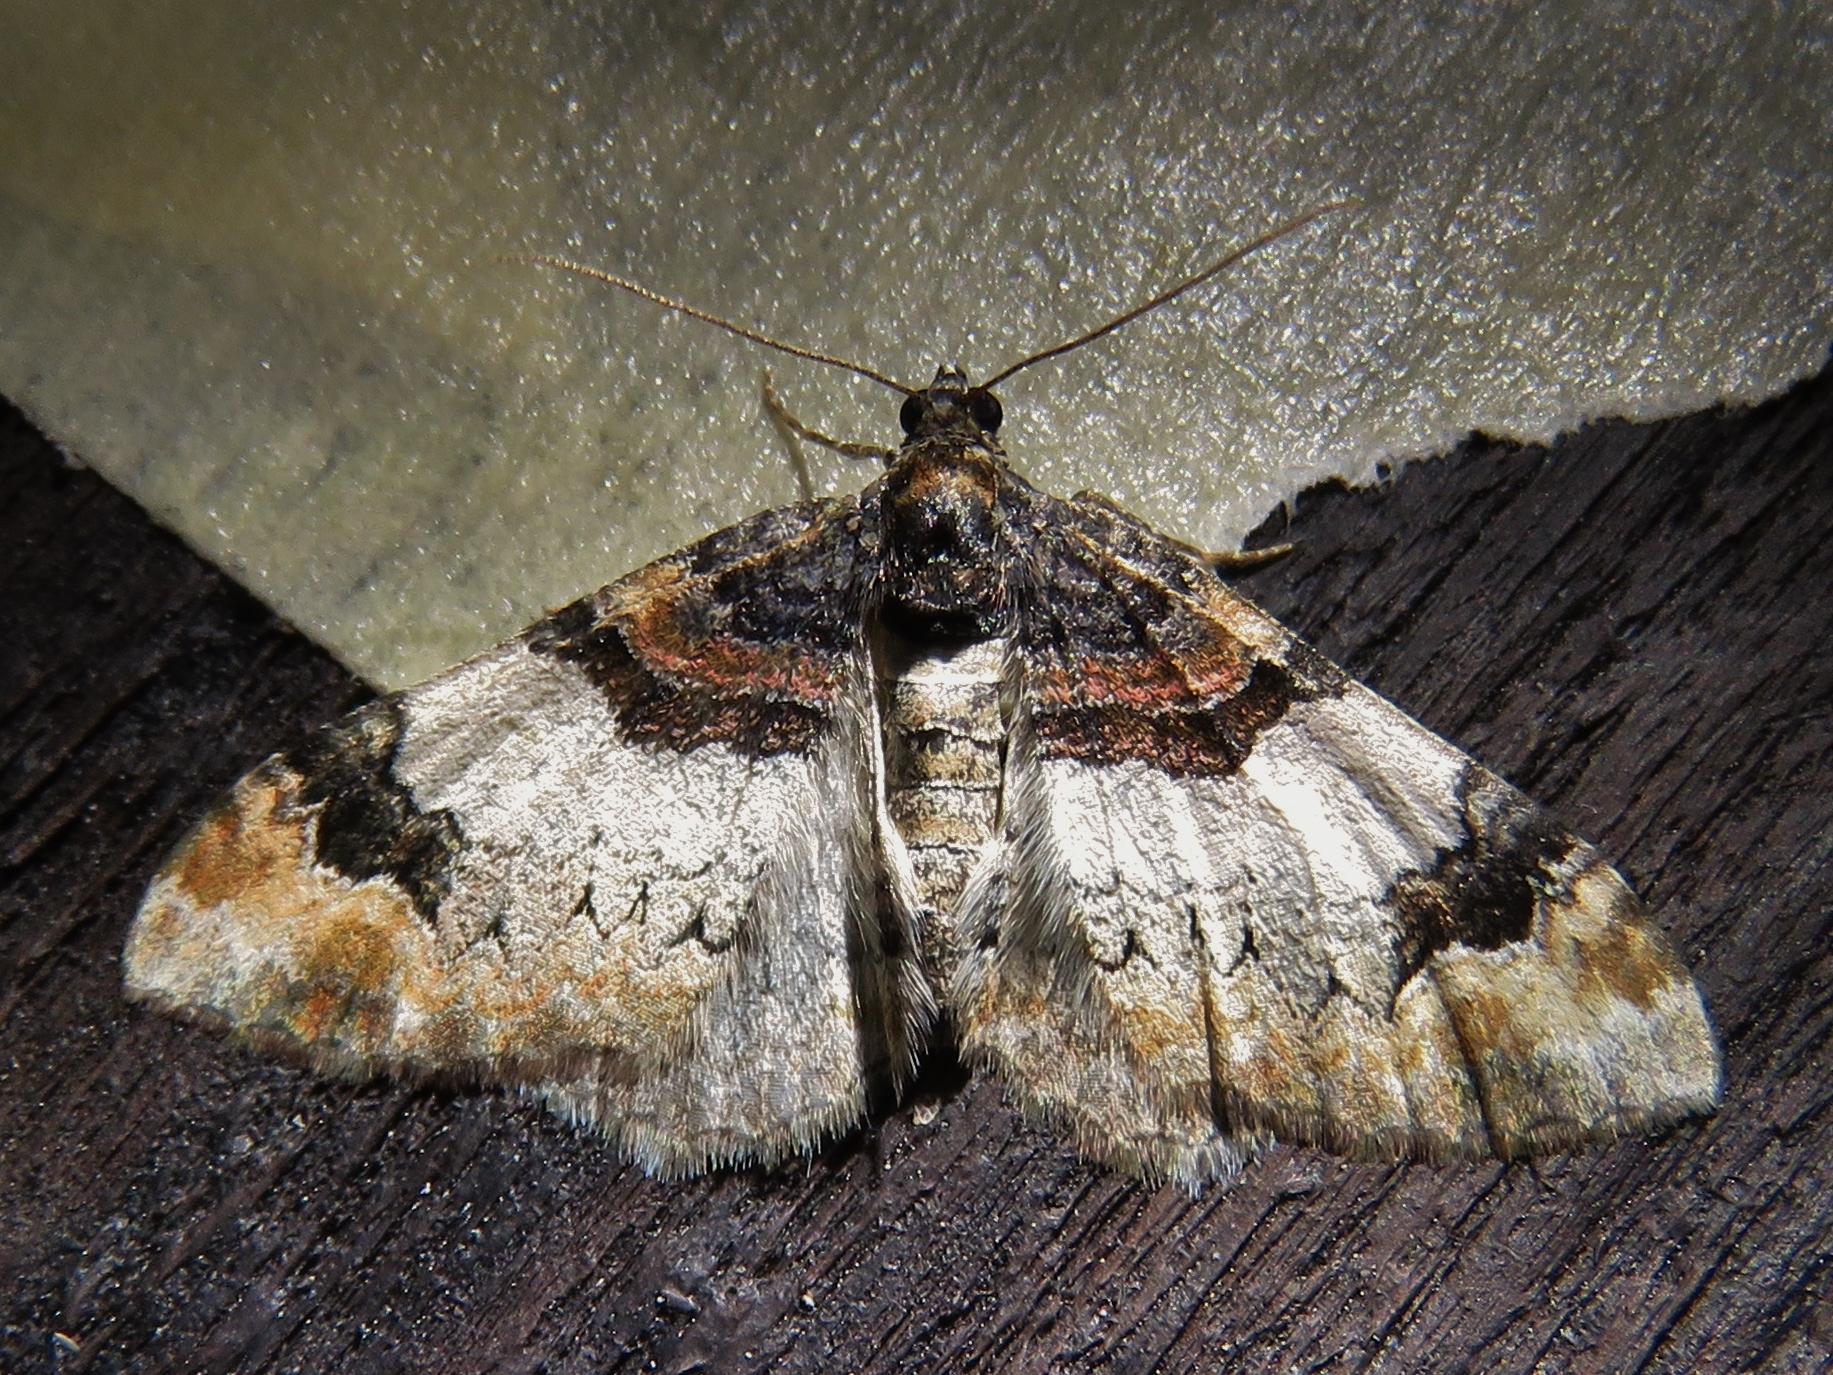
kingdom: Animalia
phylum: Arthropoda
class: Insecta
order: Lepidoptera
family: Geometridae
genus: Catarhoe
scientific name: Catarhoe cuculata
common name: Royal mantle
